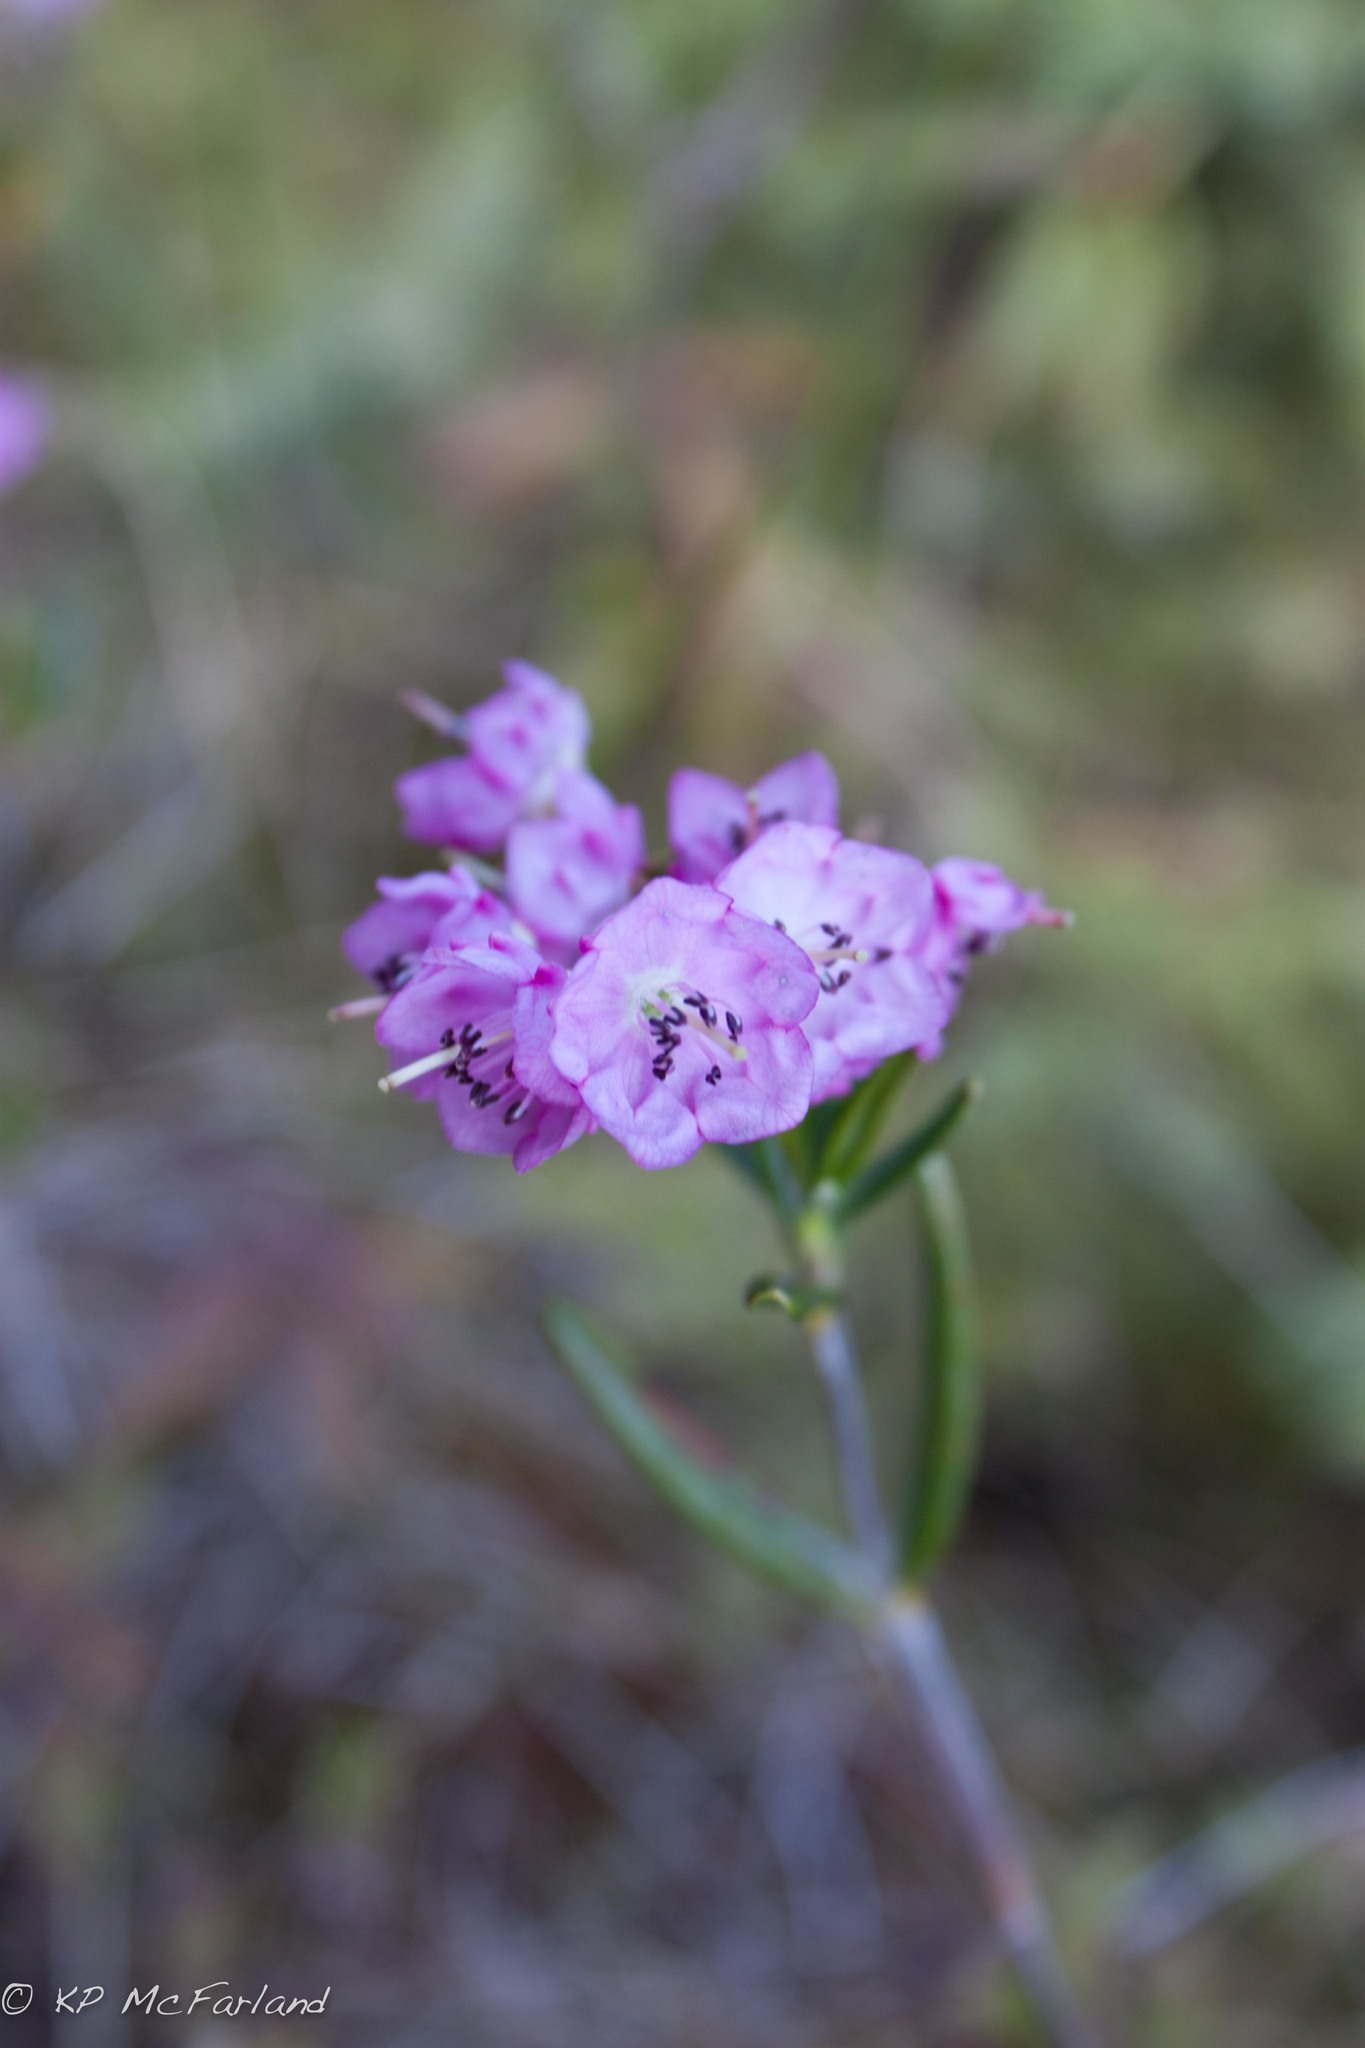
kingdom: Plantae
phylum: Tracheophyta
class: Magnoliopsida
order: Ericales
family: Ericaceae
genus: Kalmia
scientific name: Kalmia angustifolia
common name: Sheep-laurel
